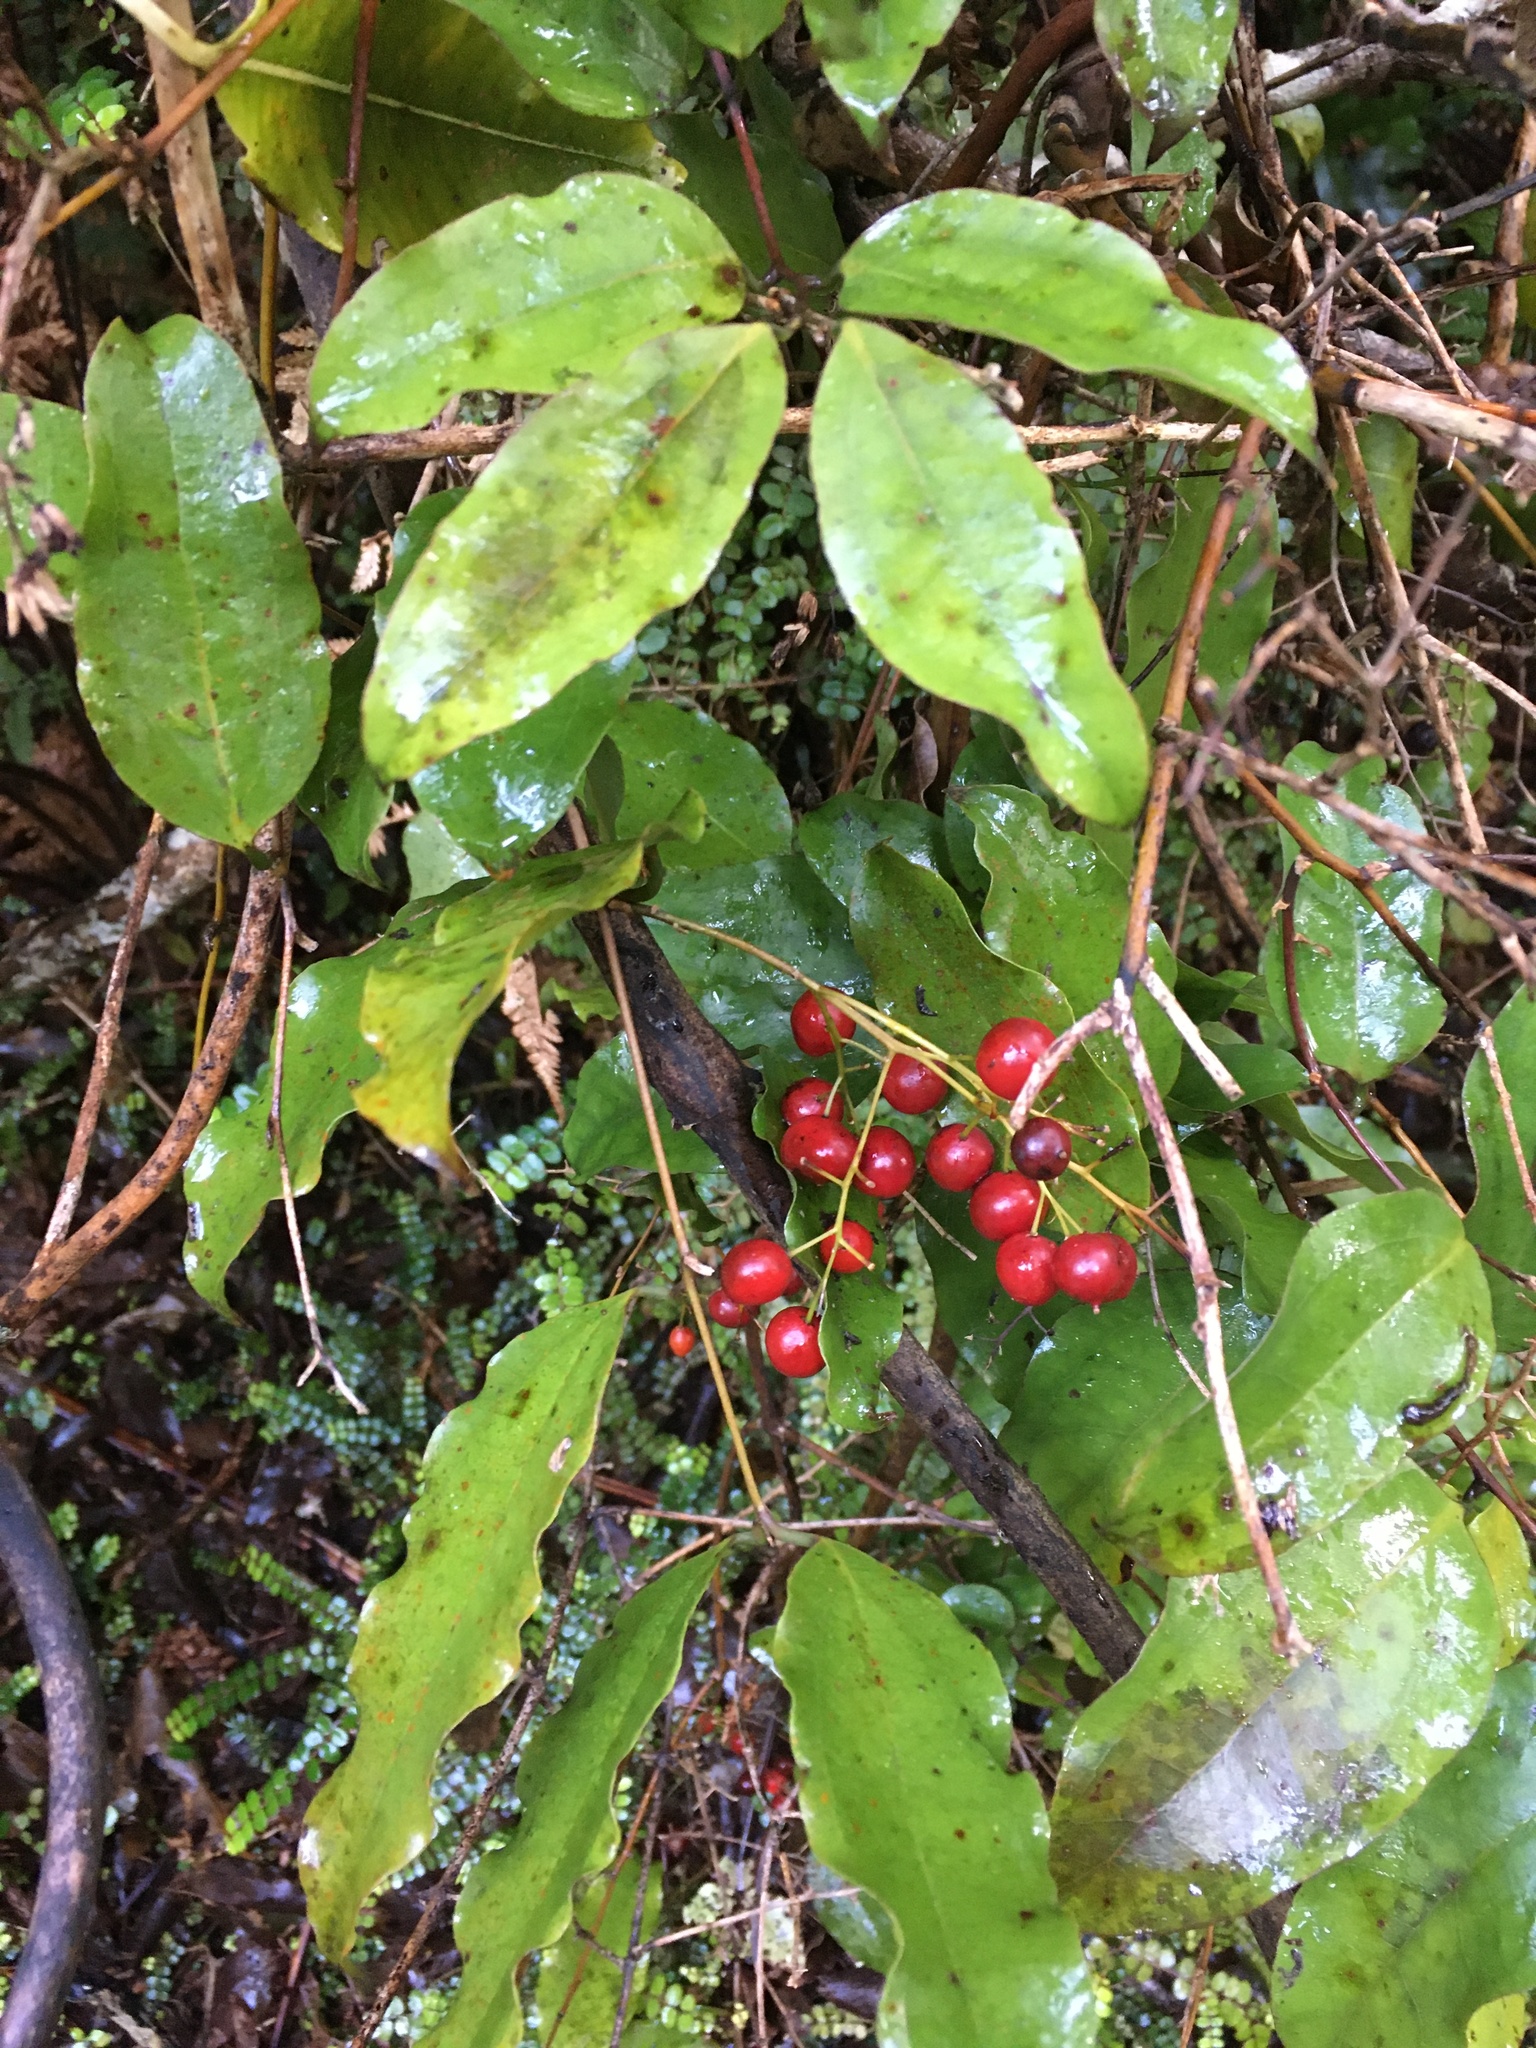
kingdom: Plantae
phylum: Tracheophyta
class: Liliopsida
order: Liliales
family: Ripogonaceae
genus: Ripogonum
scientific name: Ripogonum scandens
